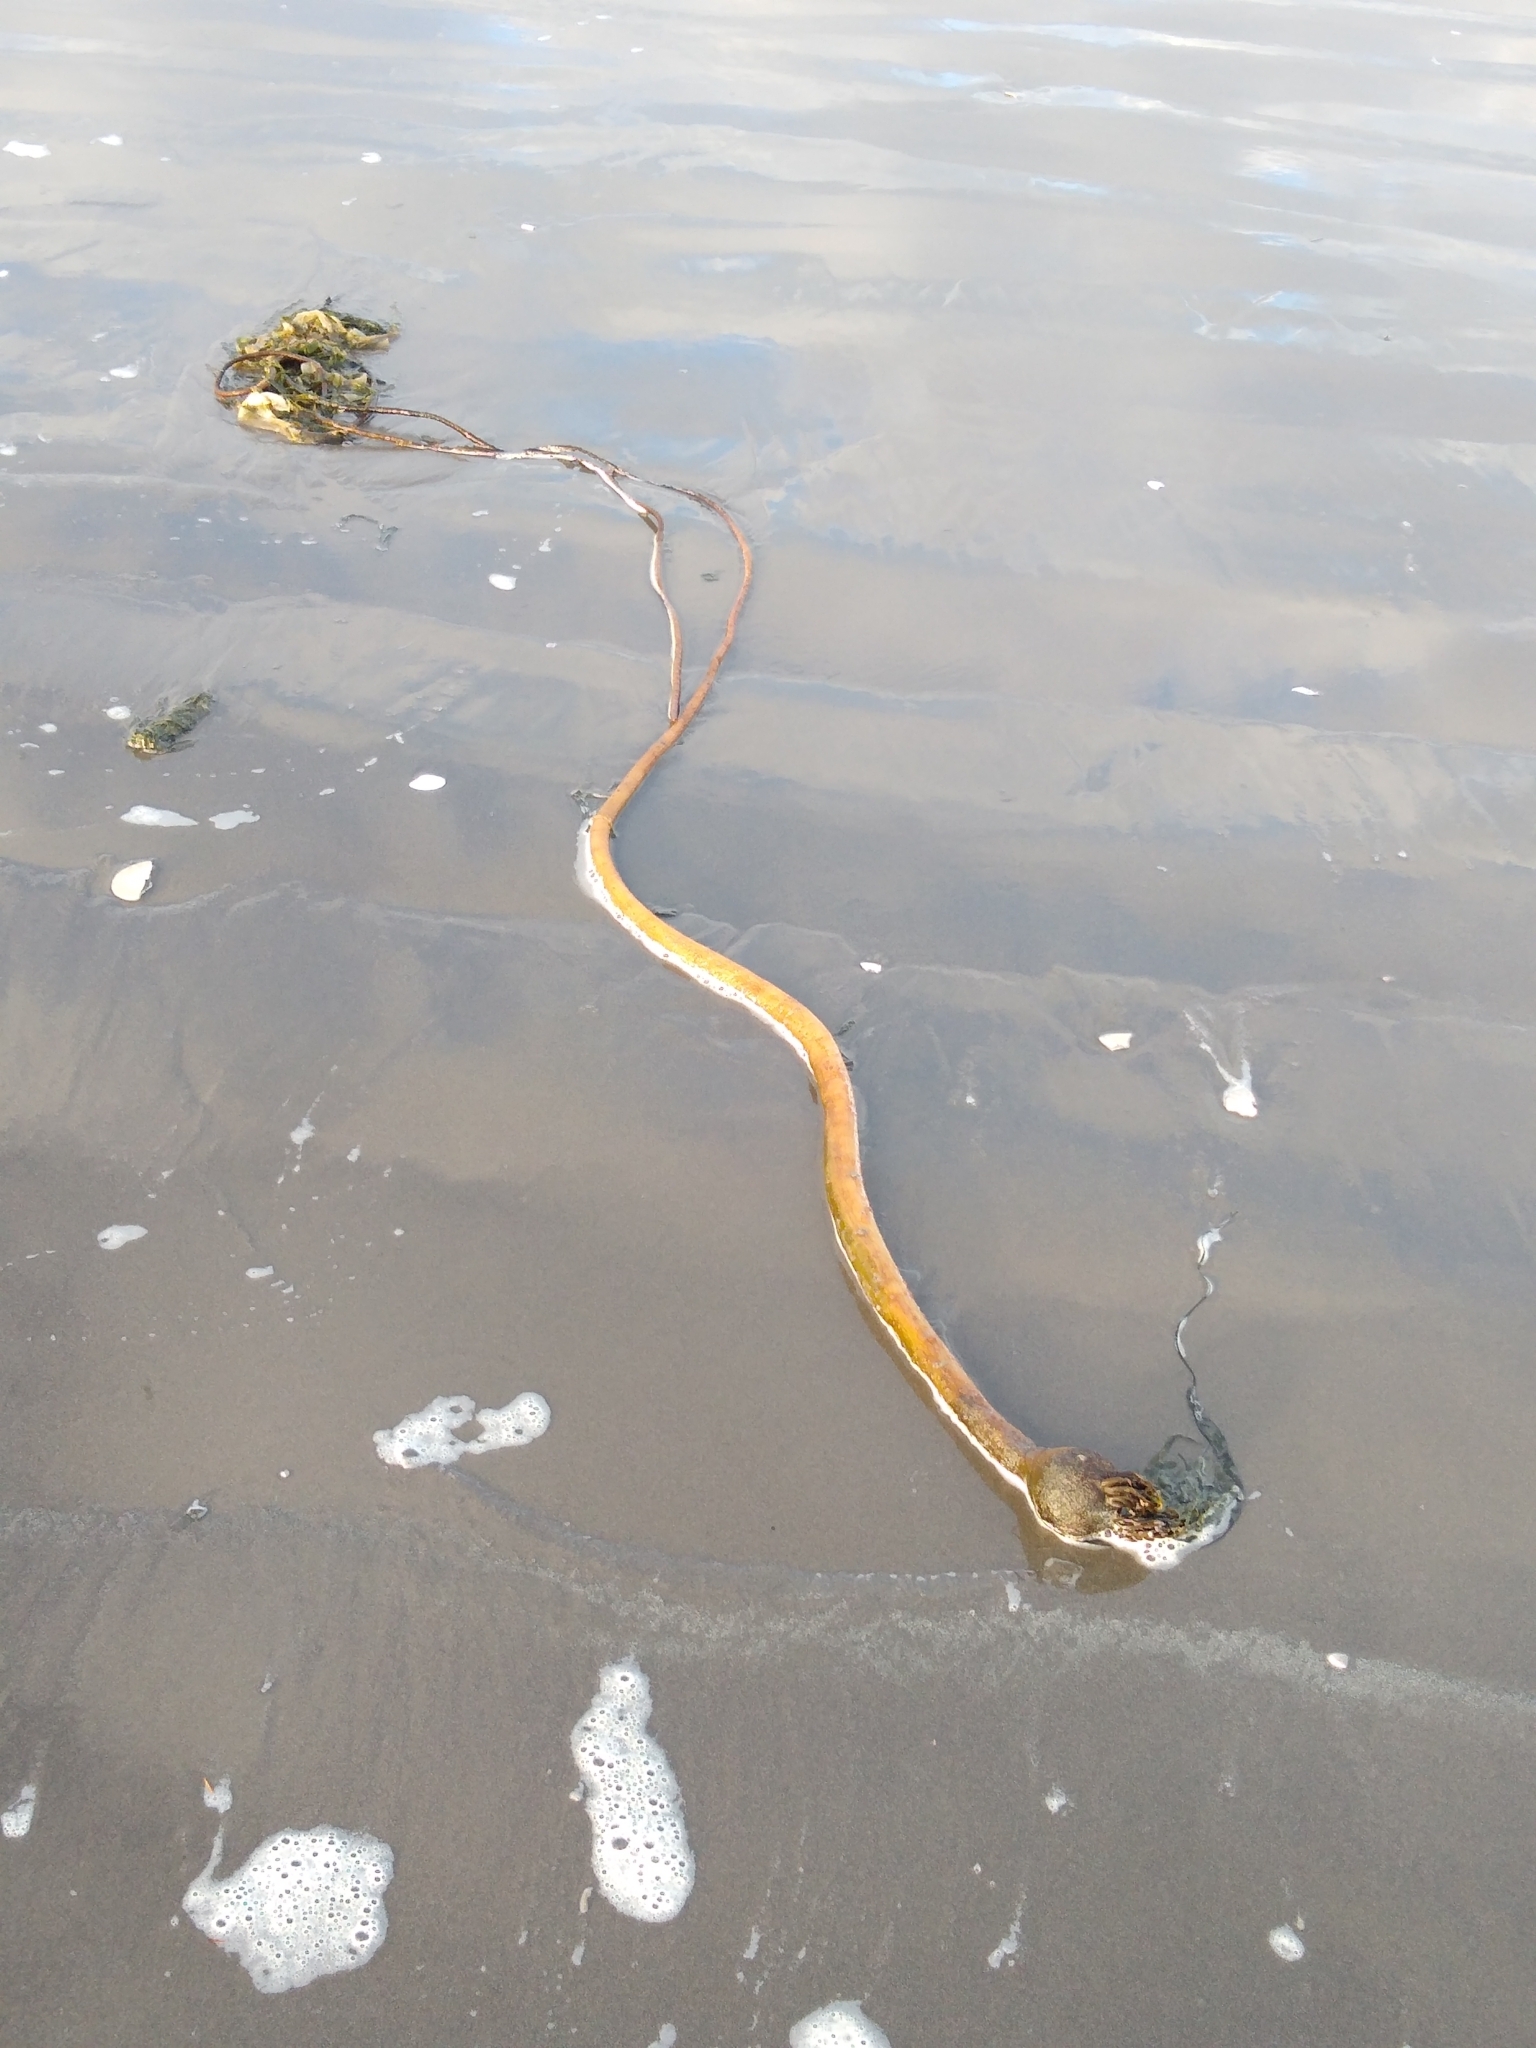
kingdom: Chromista
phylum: Ochrophyta
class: Phaeophyceae
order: Laminariales
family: Laminariaceae
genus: Nereocystis
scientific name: Nereocystis luetkeana
